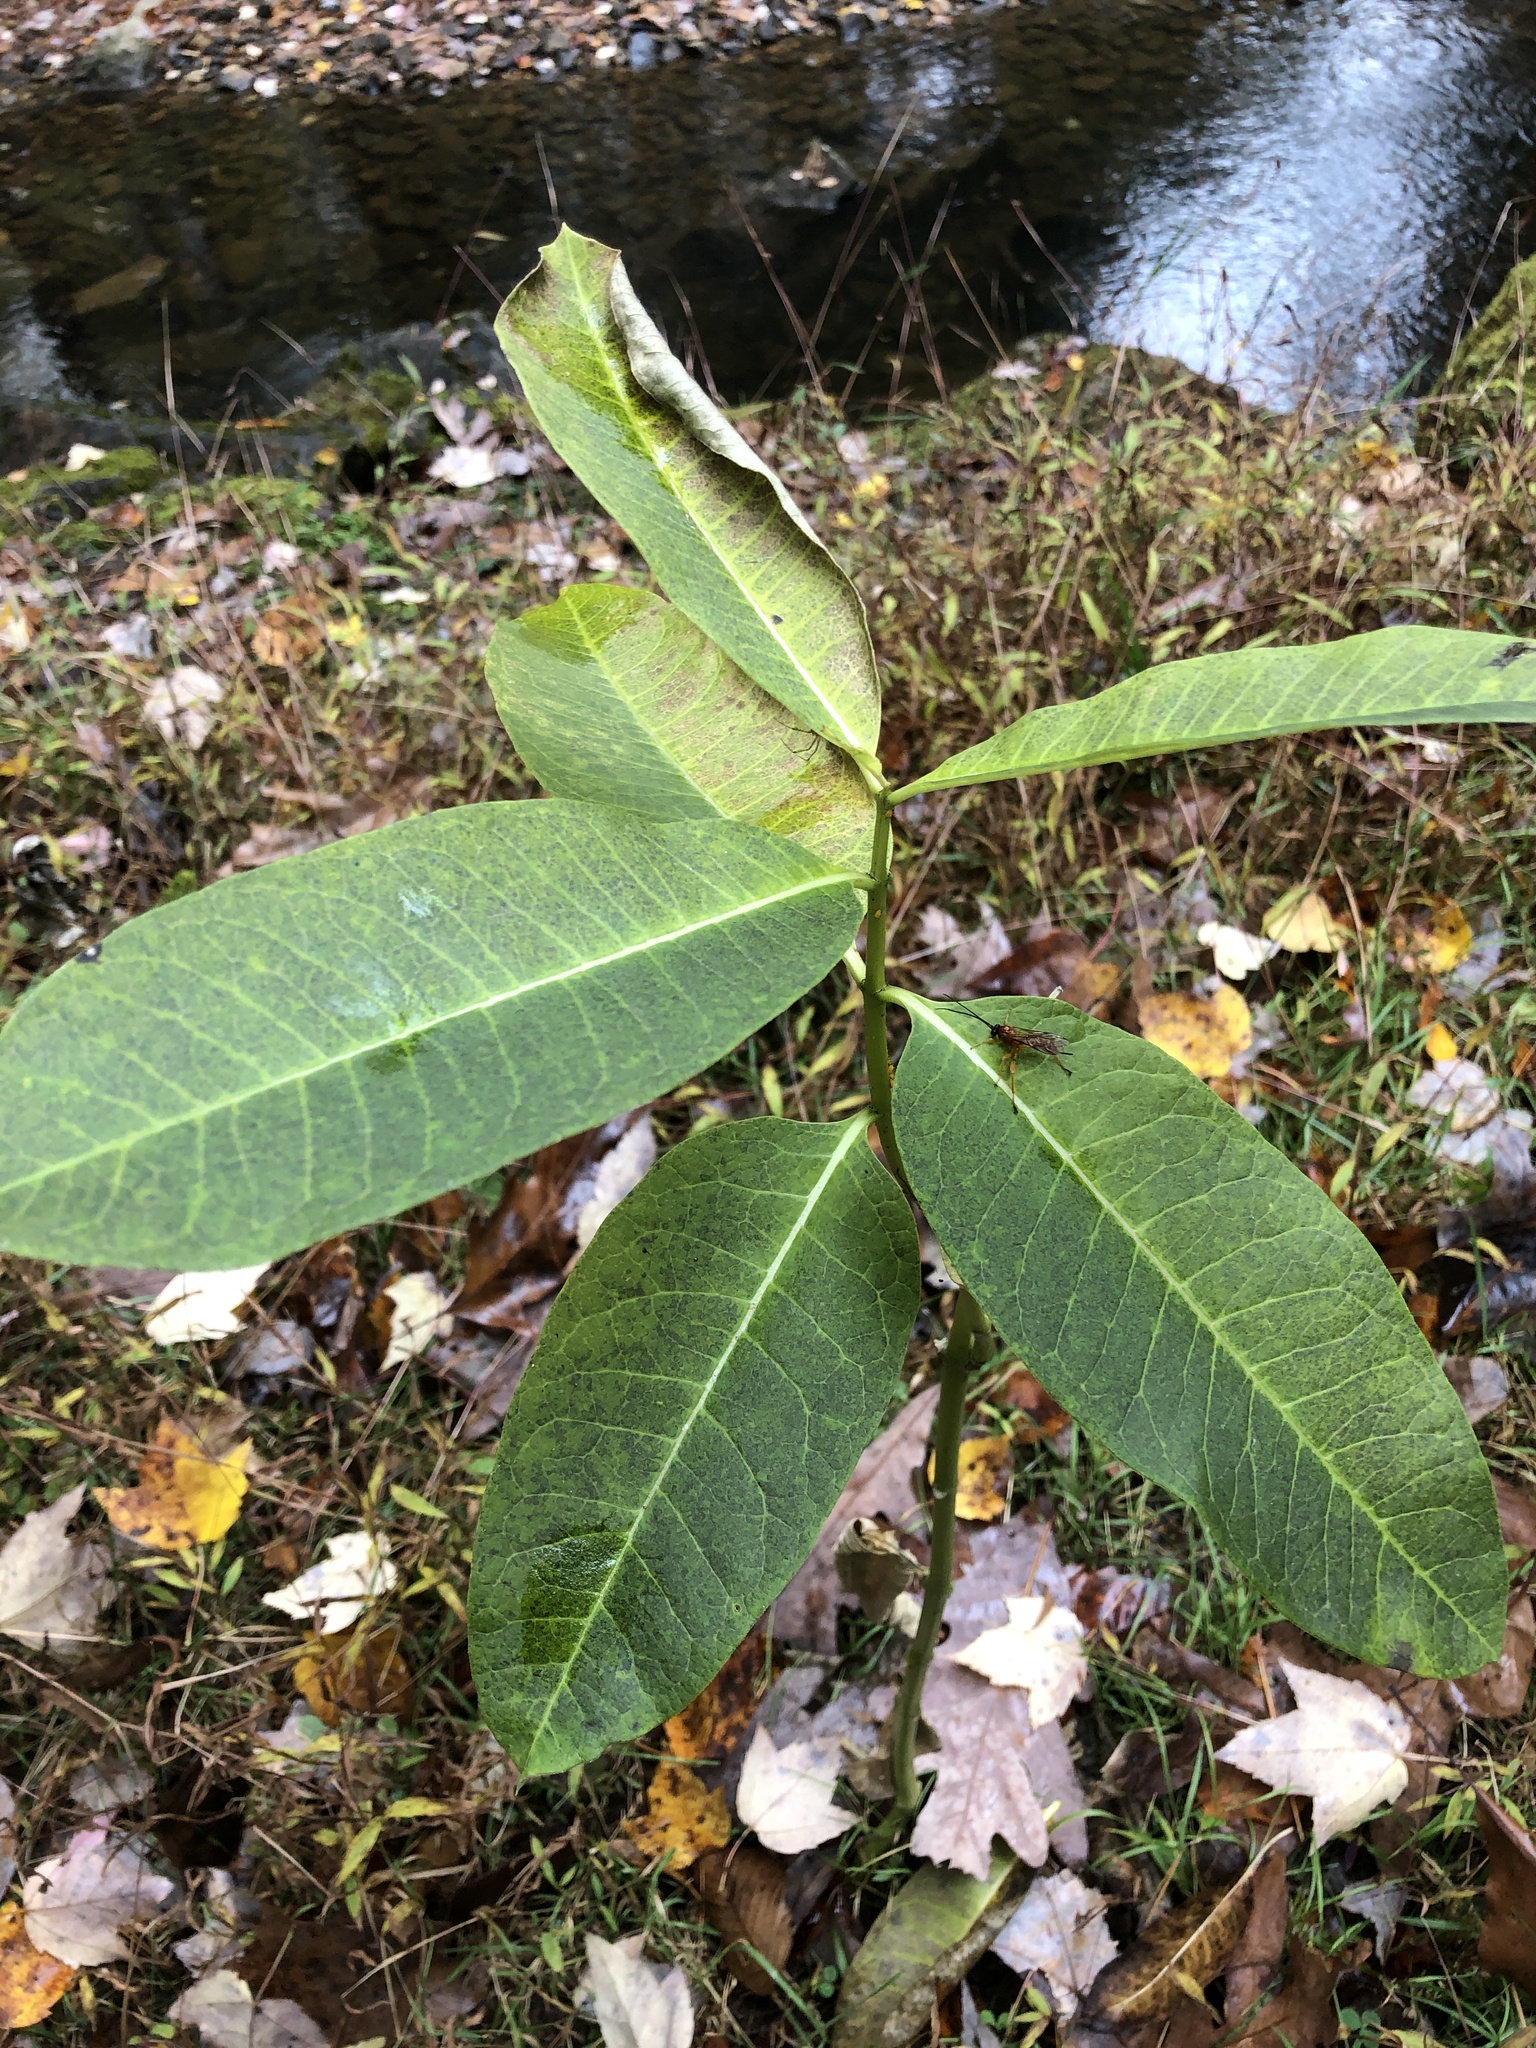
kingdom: Plantae
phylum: Tracheophyta
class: Magnoliopsida
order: Gentianales
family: Apocynaceae
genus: Asclepias
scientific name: Asclepias syriaca
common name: Common milkweed
